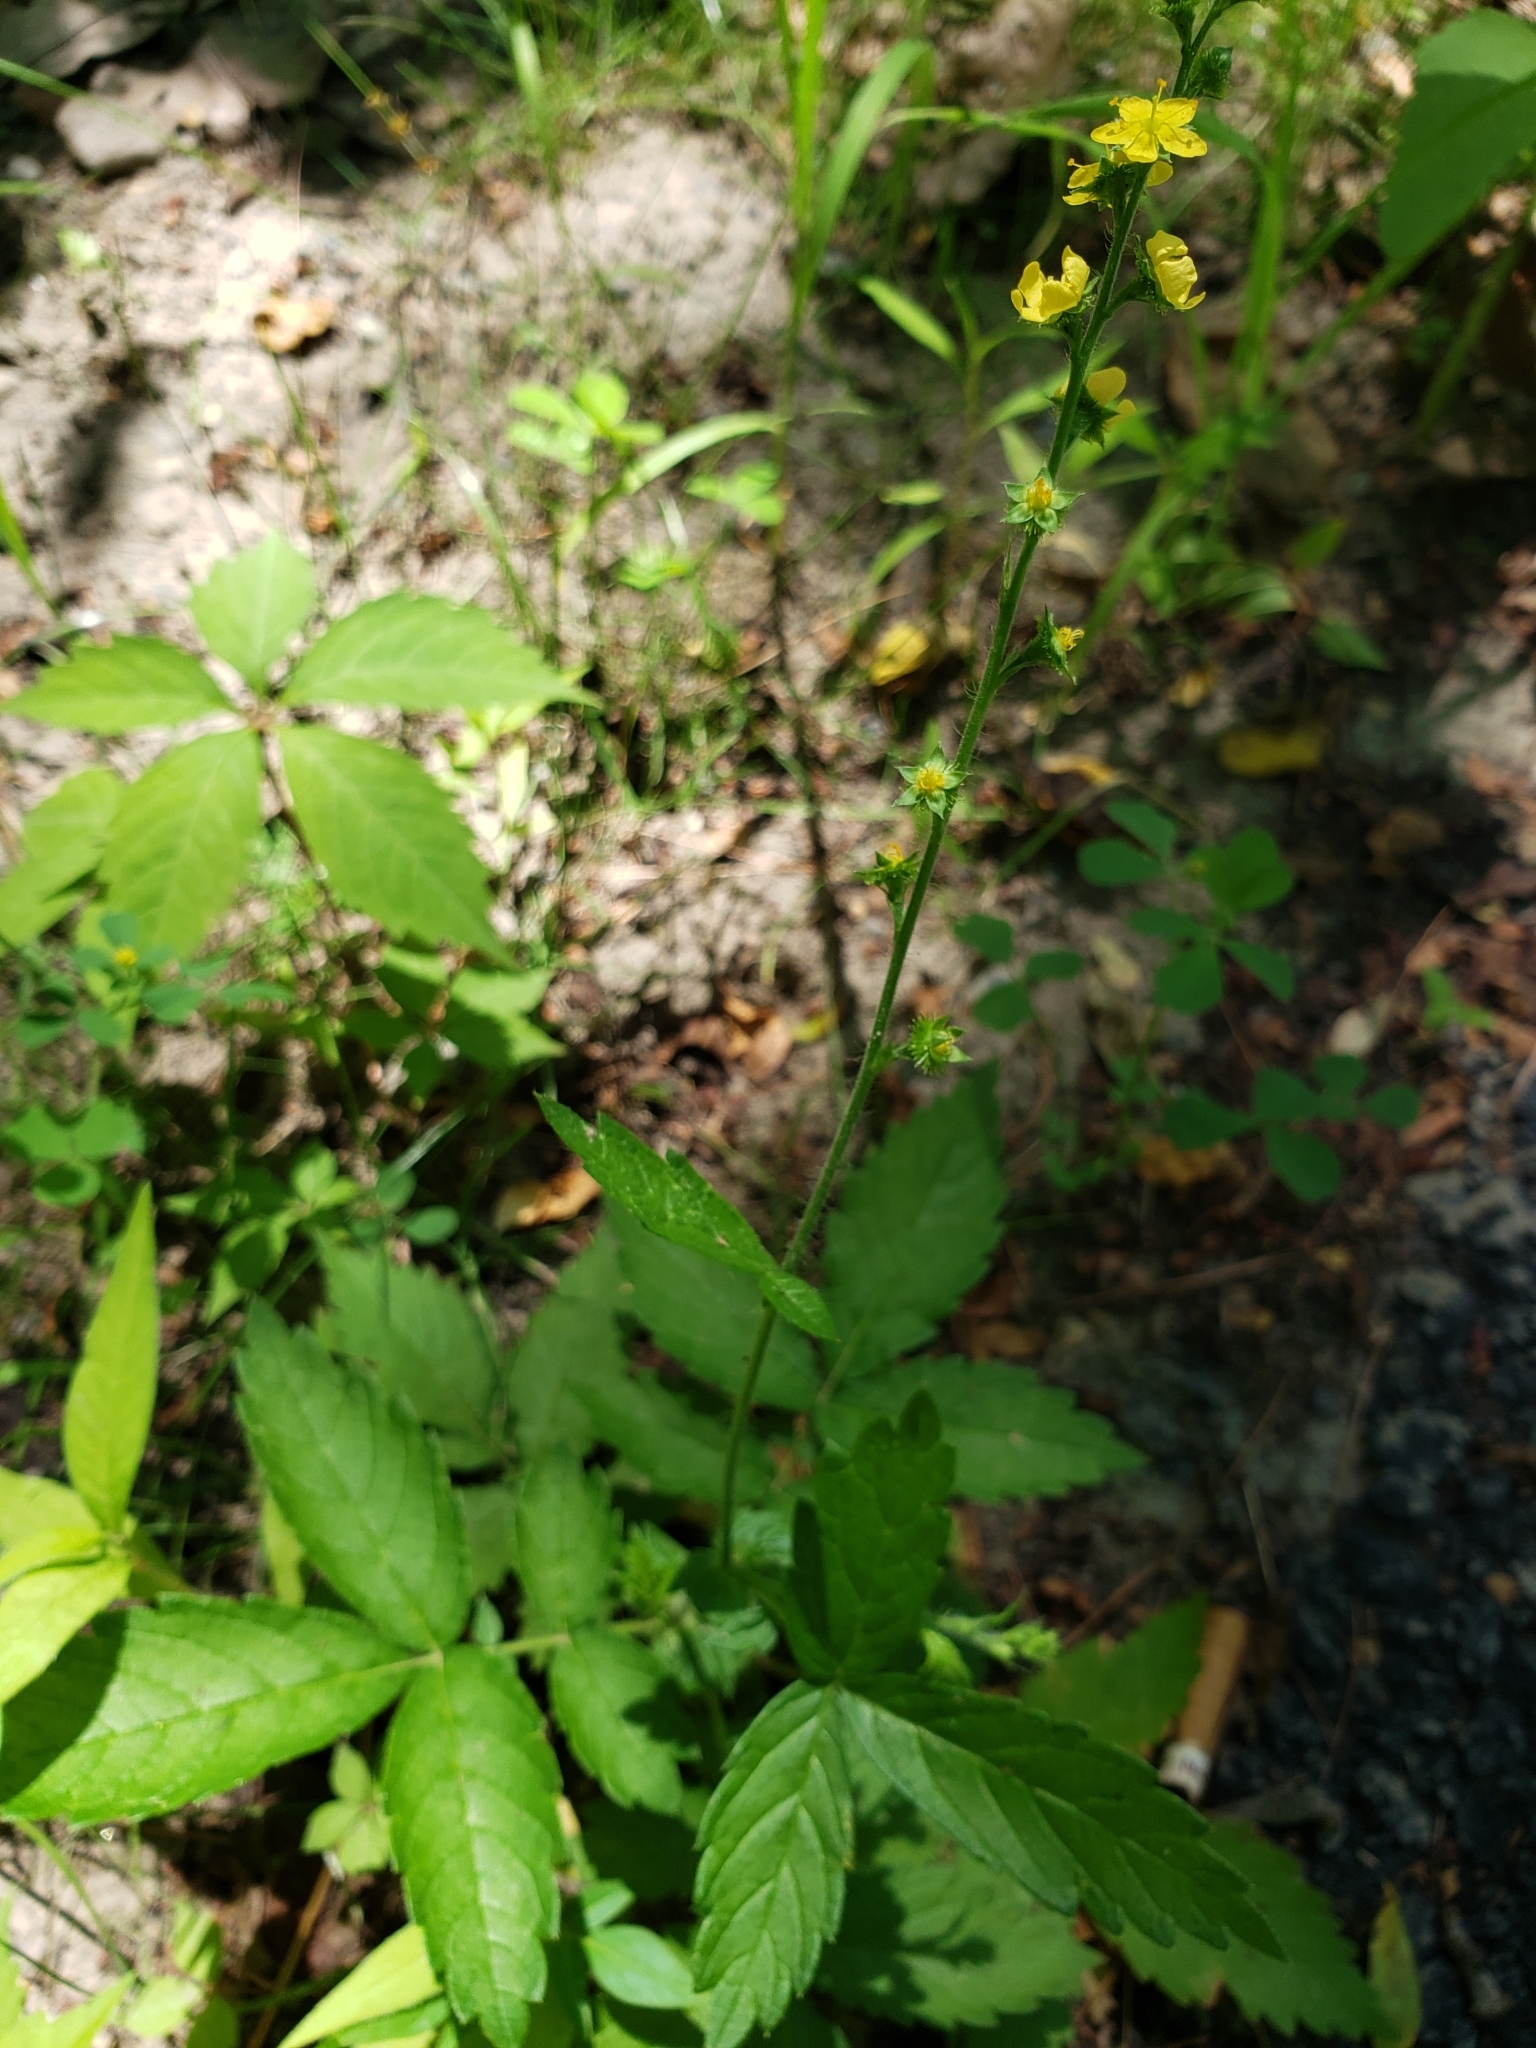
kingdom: Plantae
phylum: Tracheophyta
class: Magnoliopsida
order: Rosales
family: Rosaceae
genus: Agrimonia
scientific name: Agrimonia gryposepala
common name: Common agrimony
